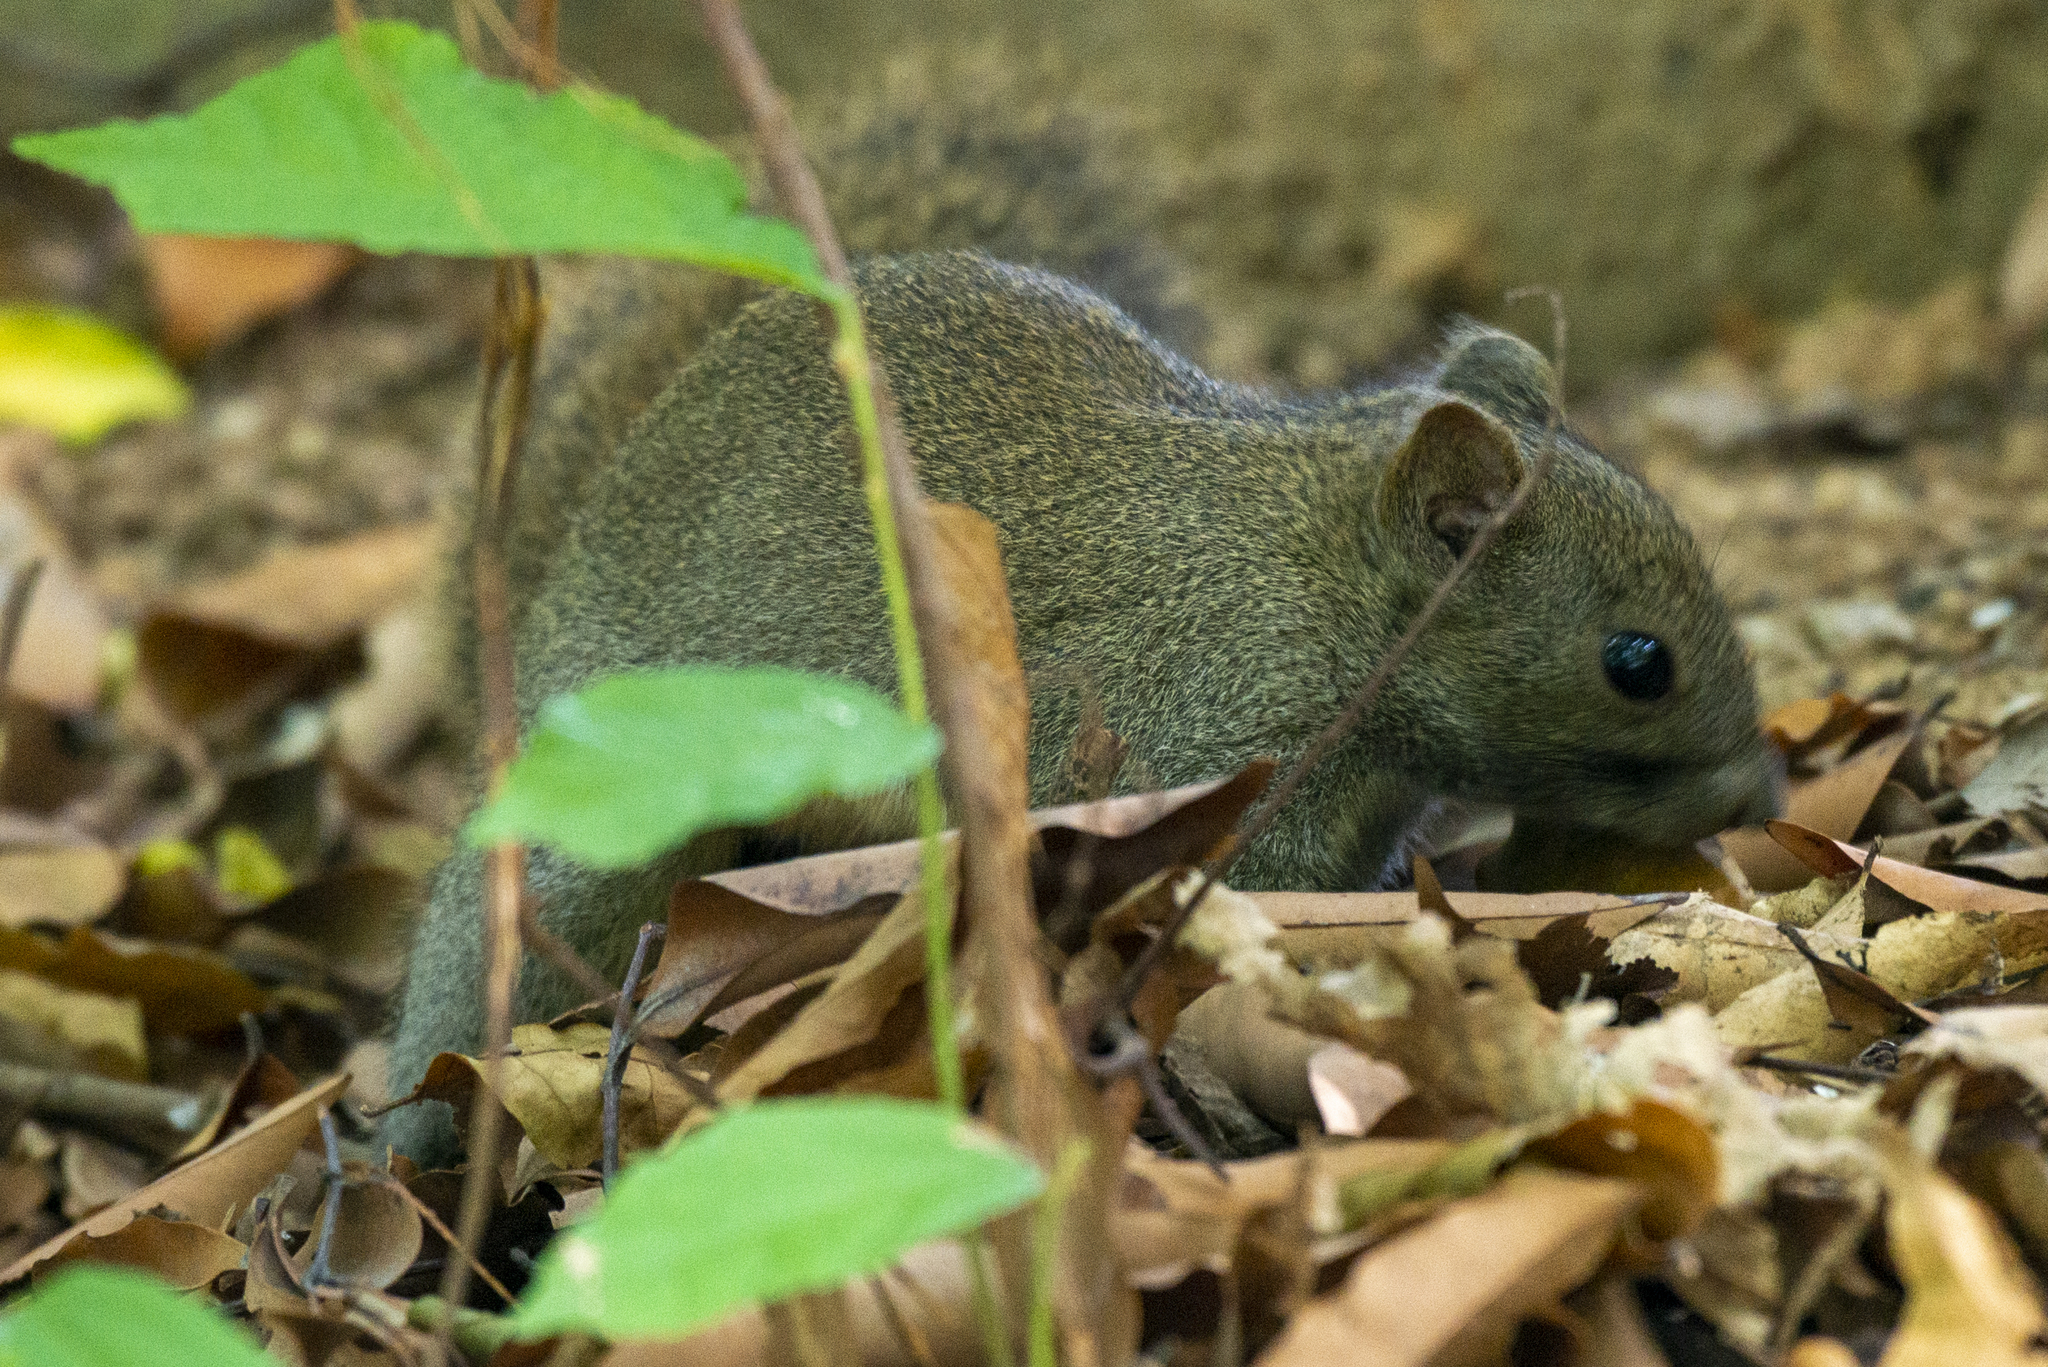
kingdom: Animalia
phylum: Chordata
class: Mammalia
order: Rodentia
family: Sciuridae
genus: Callosciurus
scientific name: Callosciurus erythraeus
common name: Pallas's squirrel
